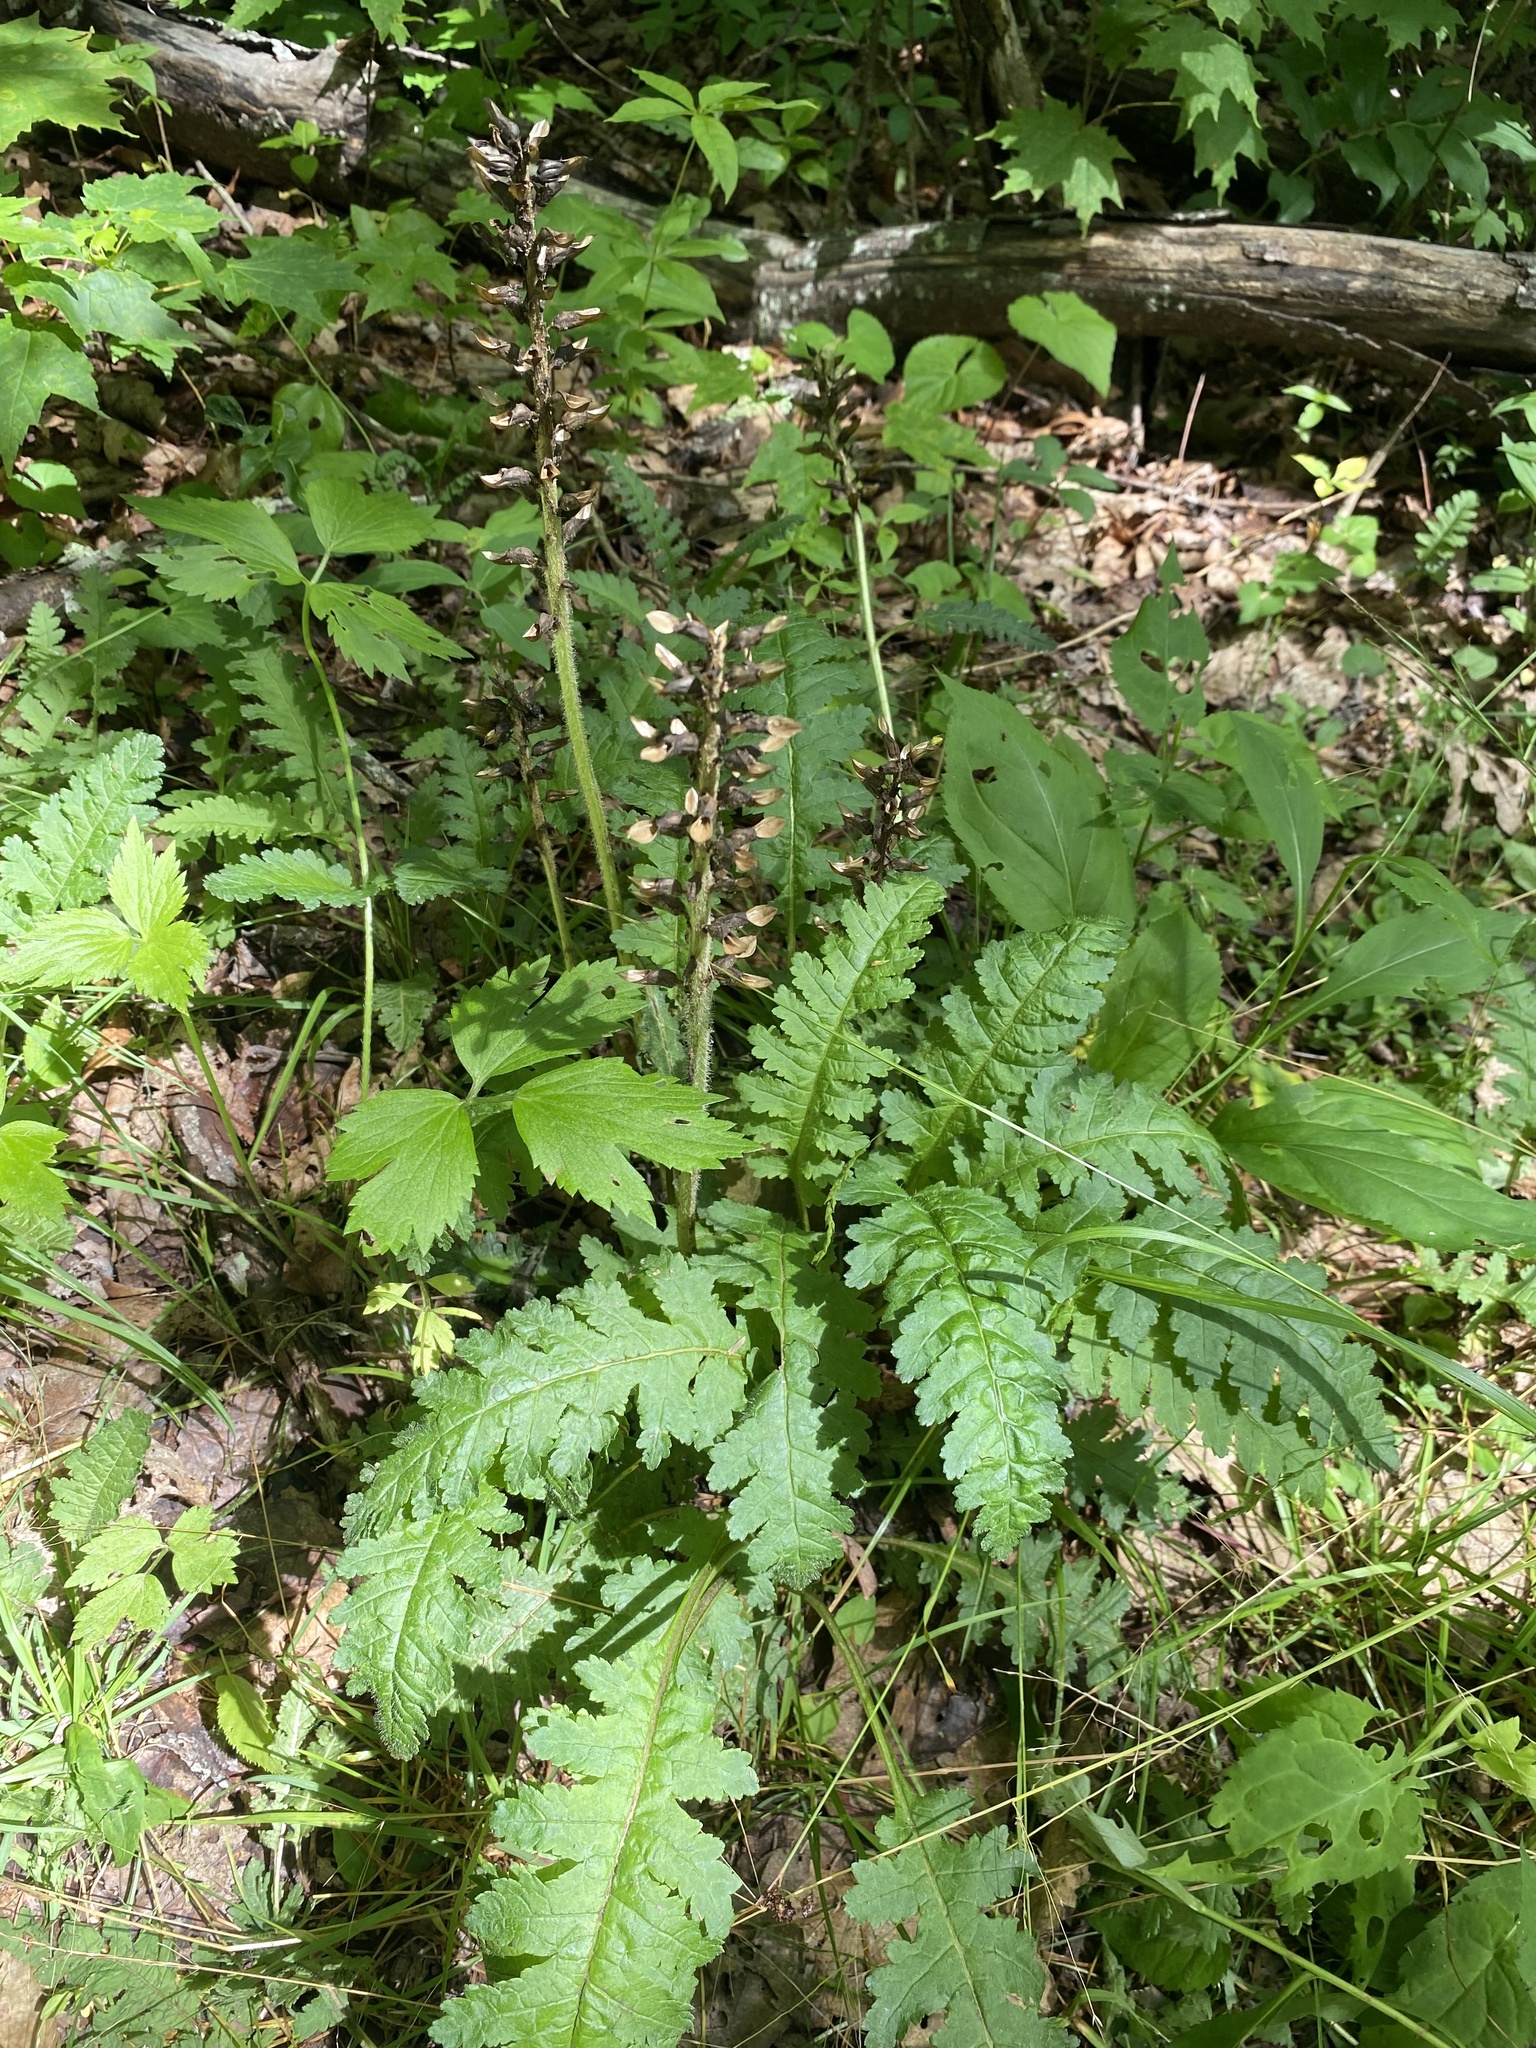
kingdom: Plantae
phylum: Tracheophyta
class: Magnoliopsida
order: Lamiales
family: Orobanchaceae
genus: Pedicularis
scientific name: Pedicularis canadensis
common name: Early lousewort
